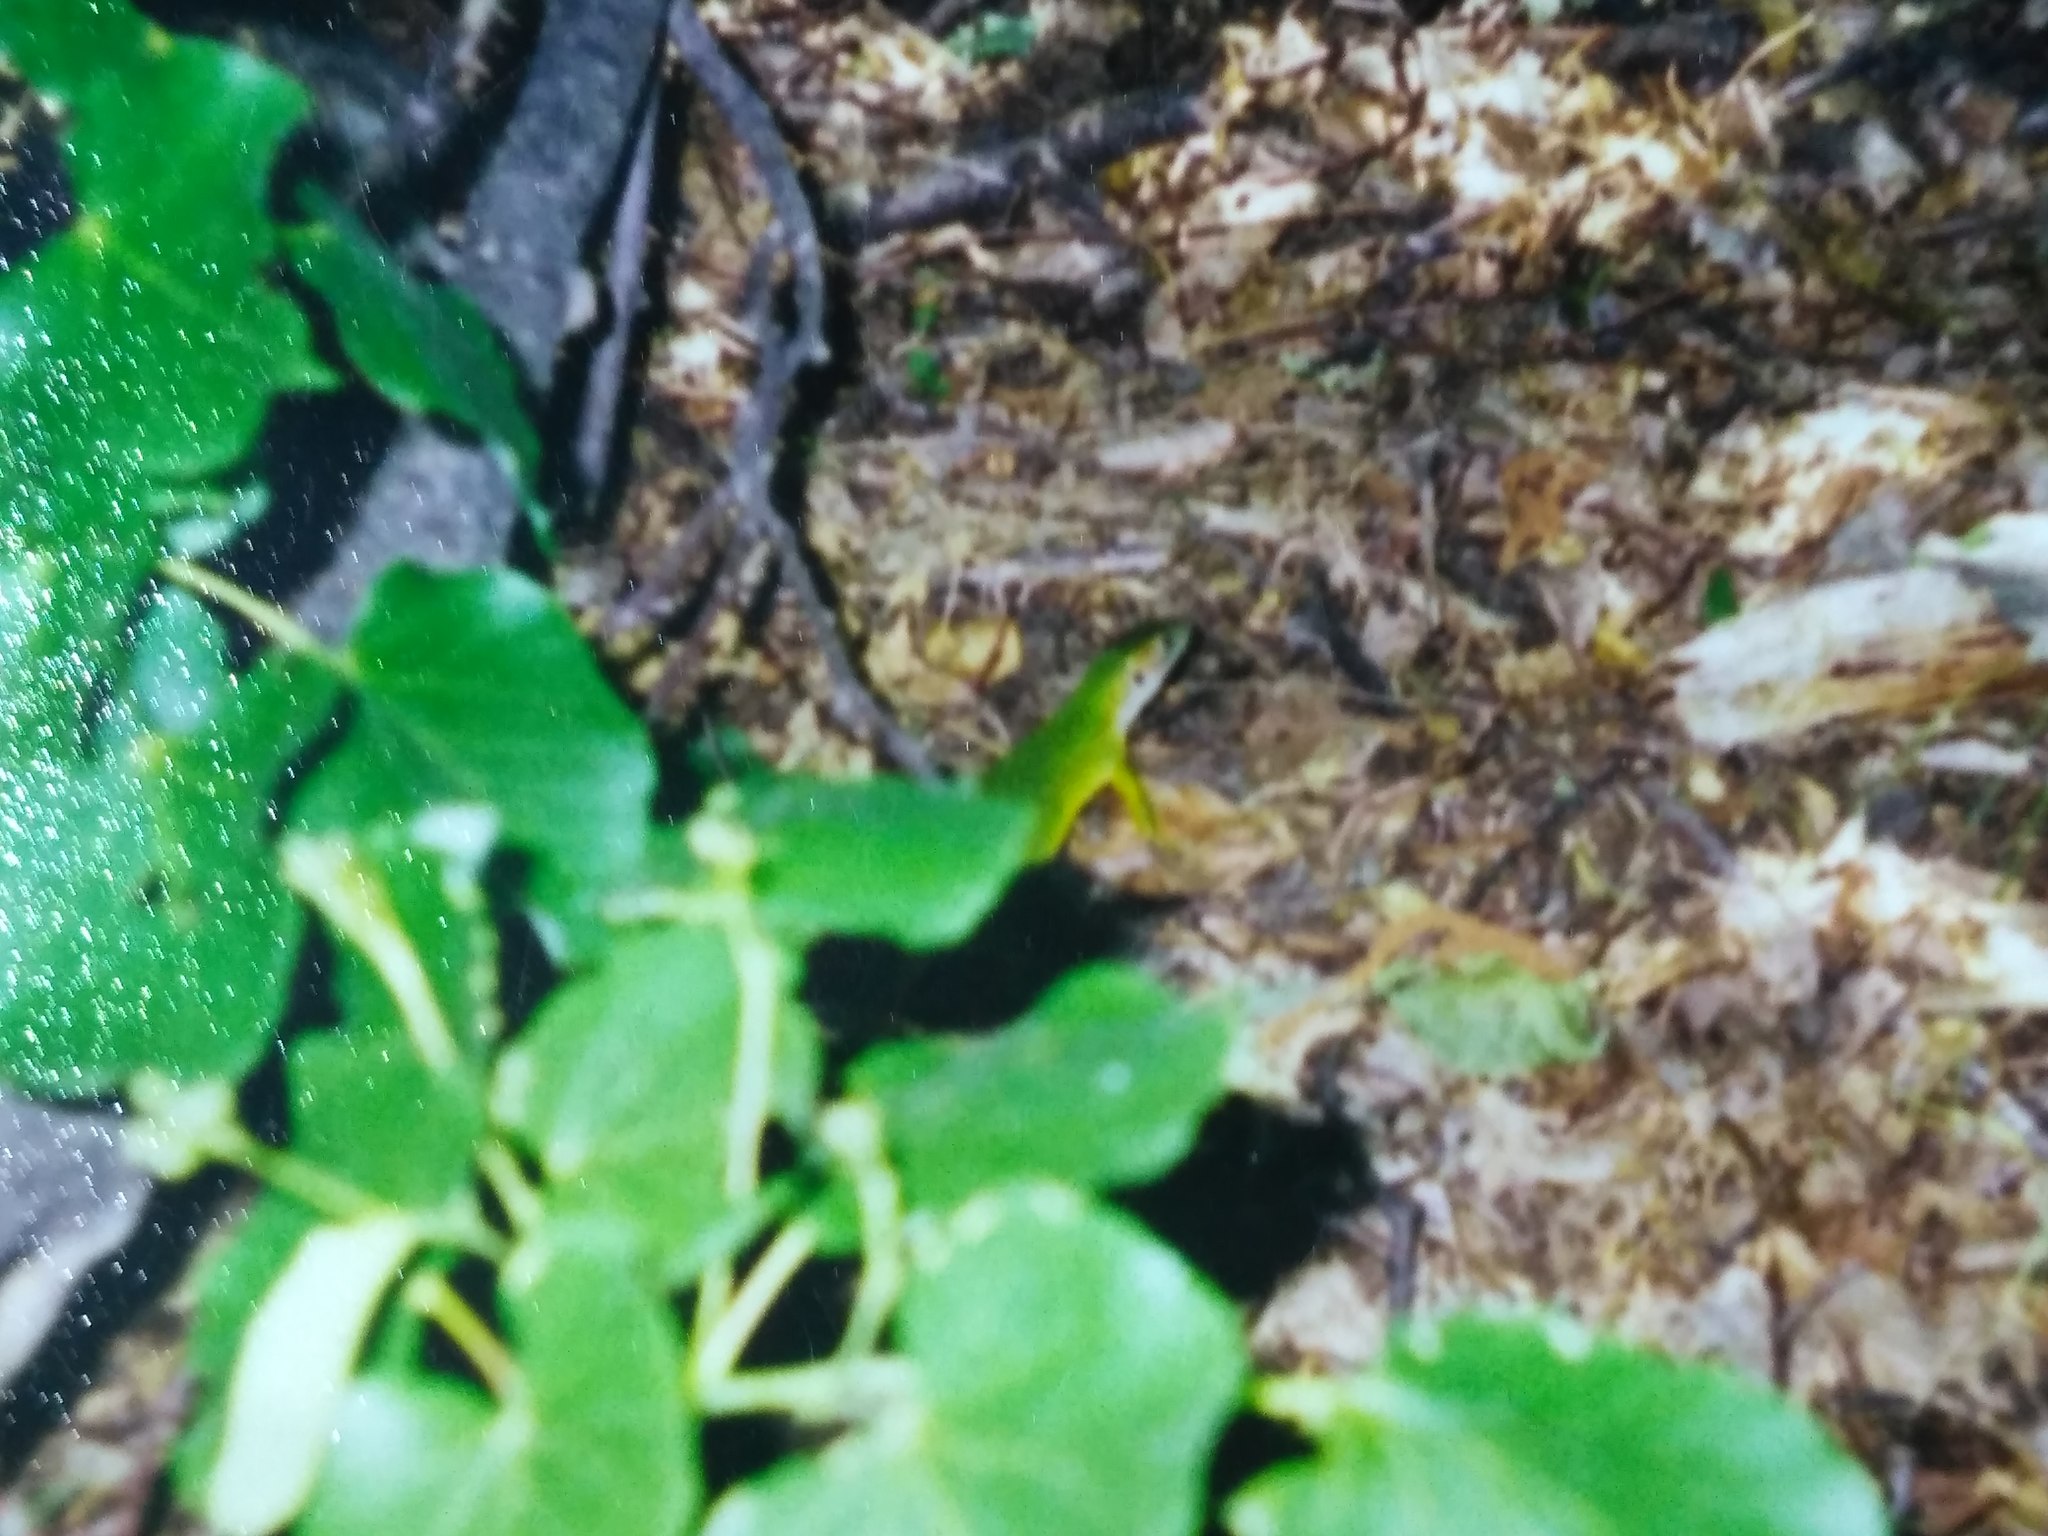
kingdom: Animalia
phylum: Chordata
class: Squamata
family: Lacertidae
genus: Lacerta
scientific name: Lacerta viridis
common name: European green lizard
